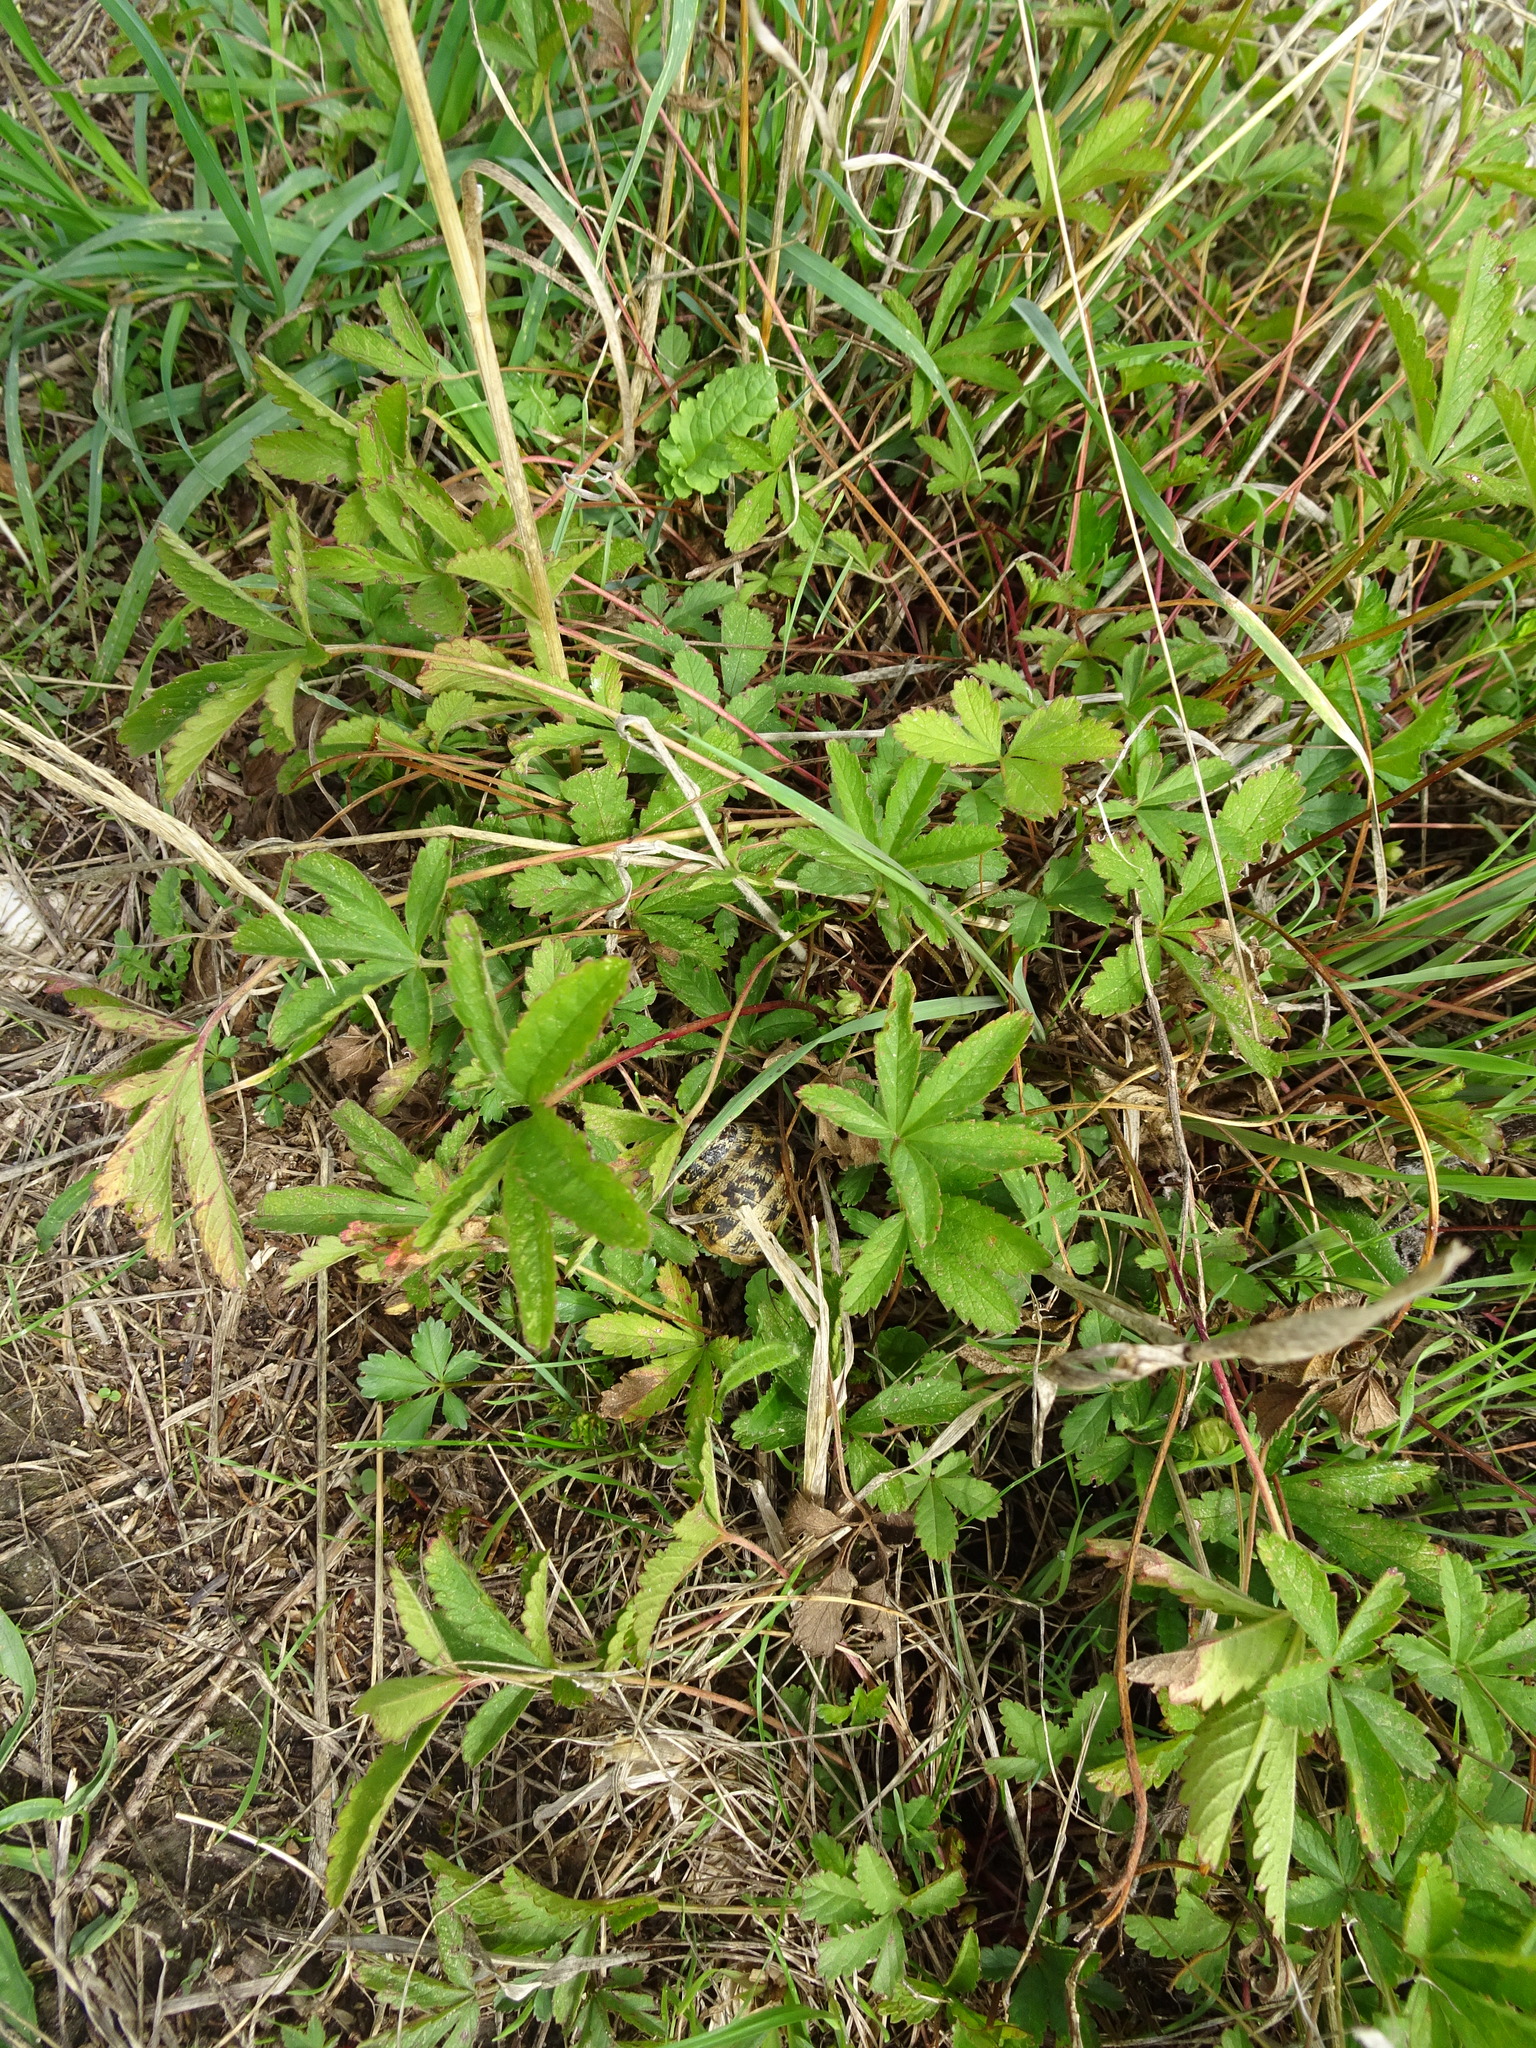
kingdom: Plantae
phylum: Tracheophyta
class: Magnoliopsida
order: Rosales
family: Rosaceae
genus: Potentilla
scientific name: Potentilla reptans
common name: Creeping cinquefoil
